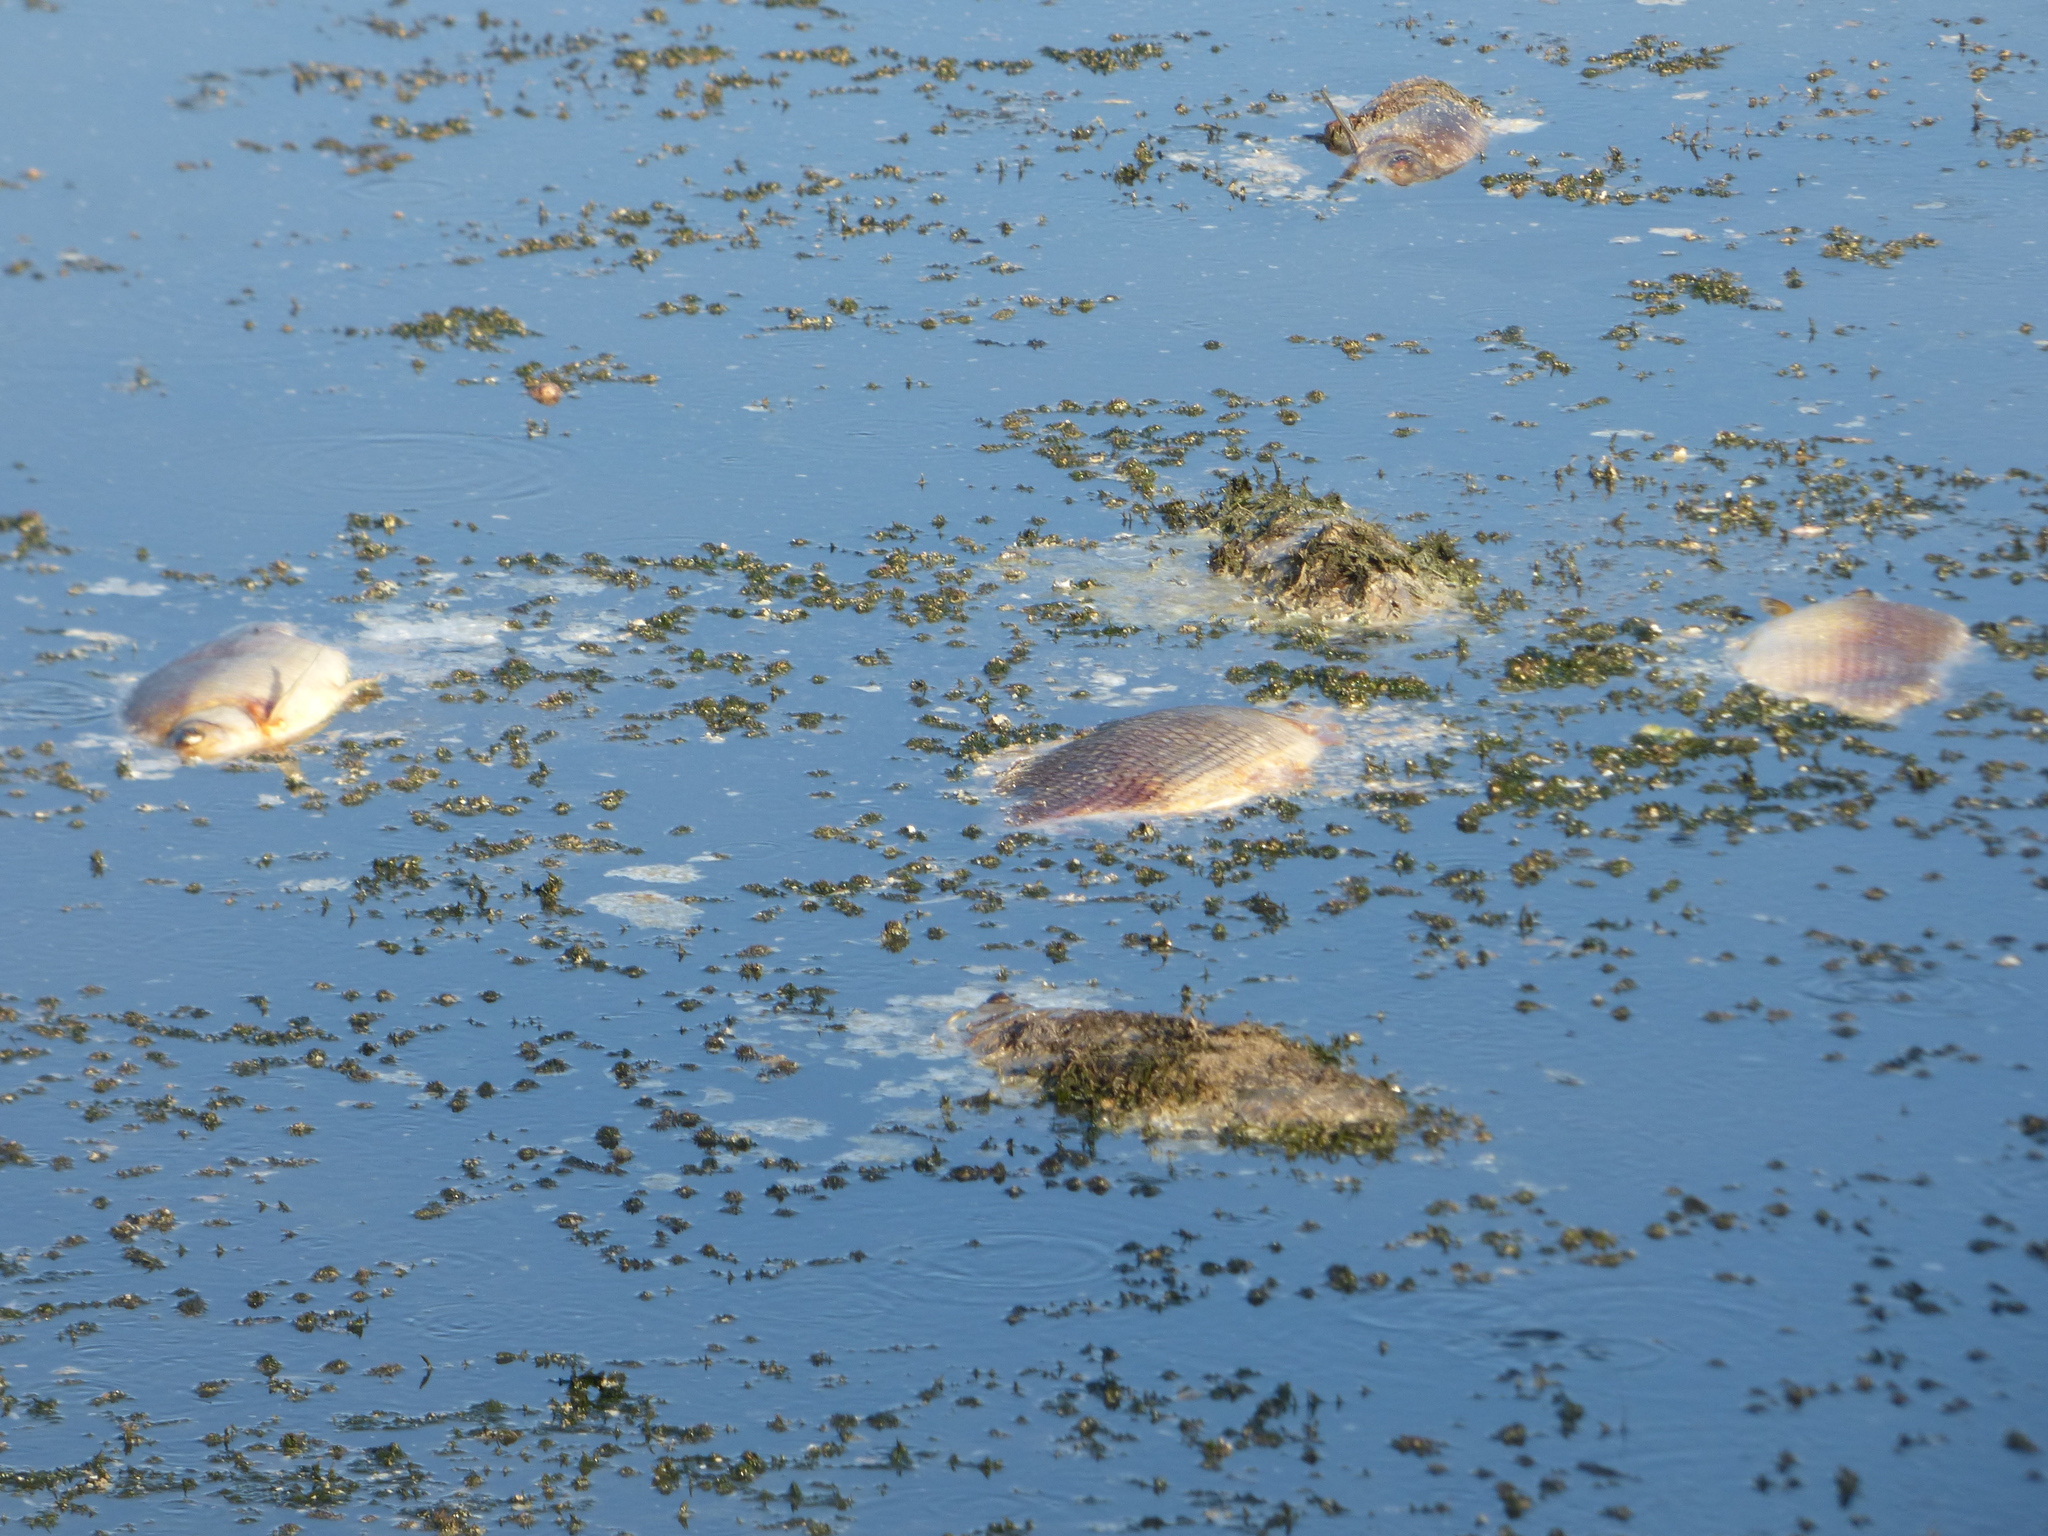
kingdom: Animalia
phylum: Chordata
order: Characiformes
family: Prochilodontidae
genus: Prochilodus
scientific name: Prochilodus lineatus
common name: Curimbata
